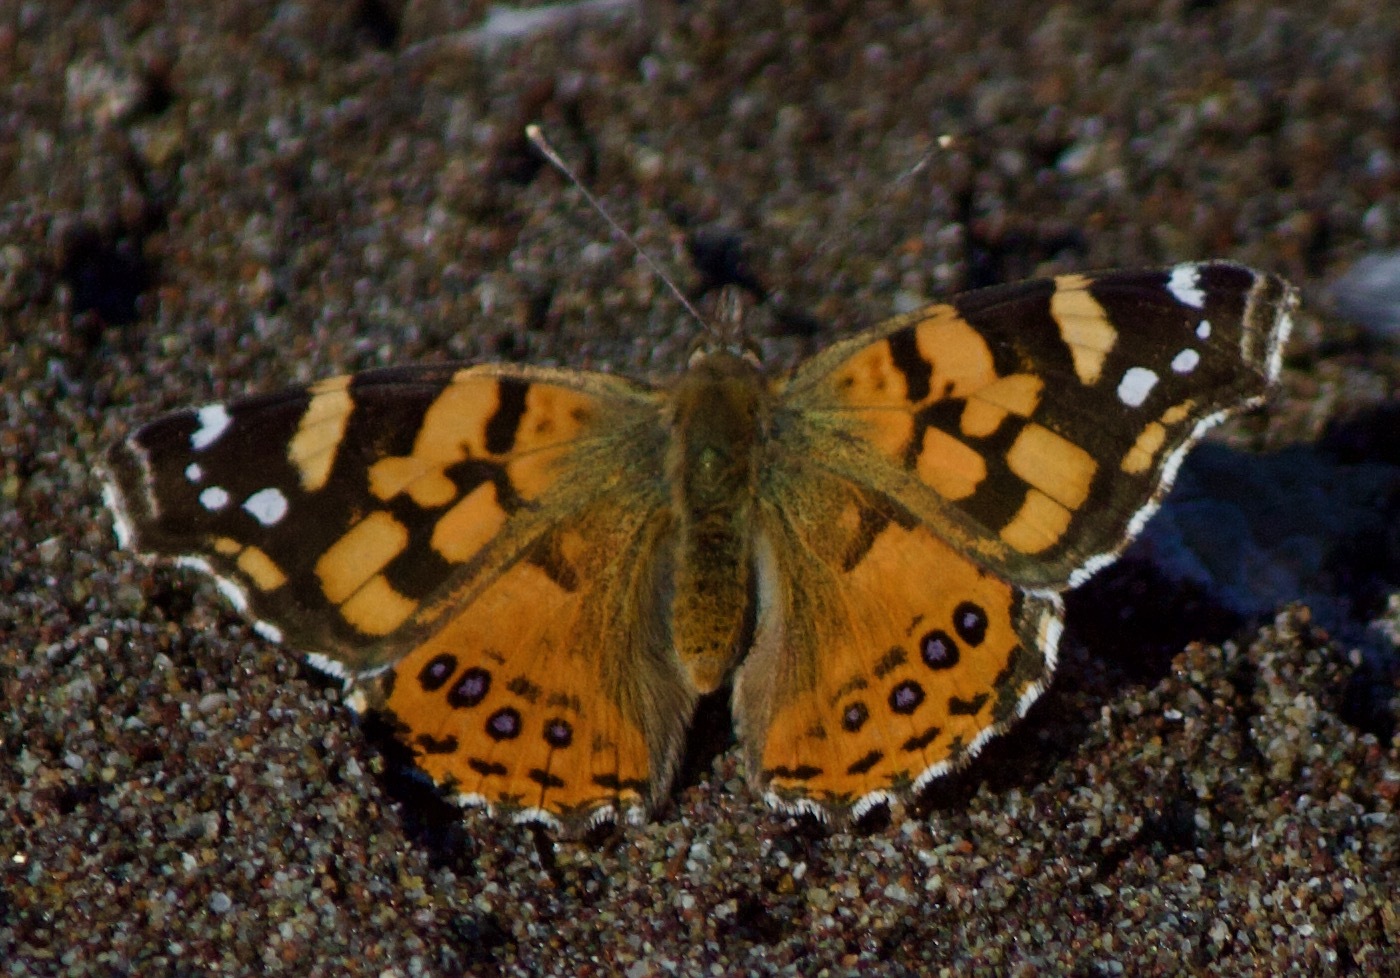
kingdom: Animalia
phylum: Arthropoda
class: Insecta
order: Lepidoptera
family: Nymphalidae
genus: Vanessa
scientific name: Vanessa carye
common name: Subtropical lady
